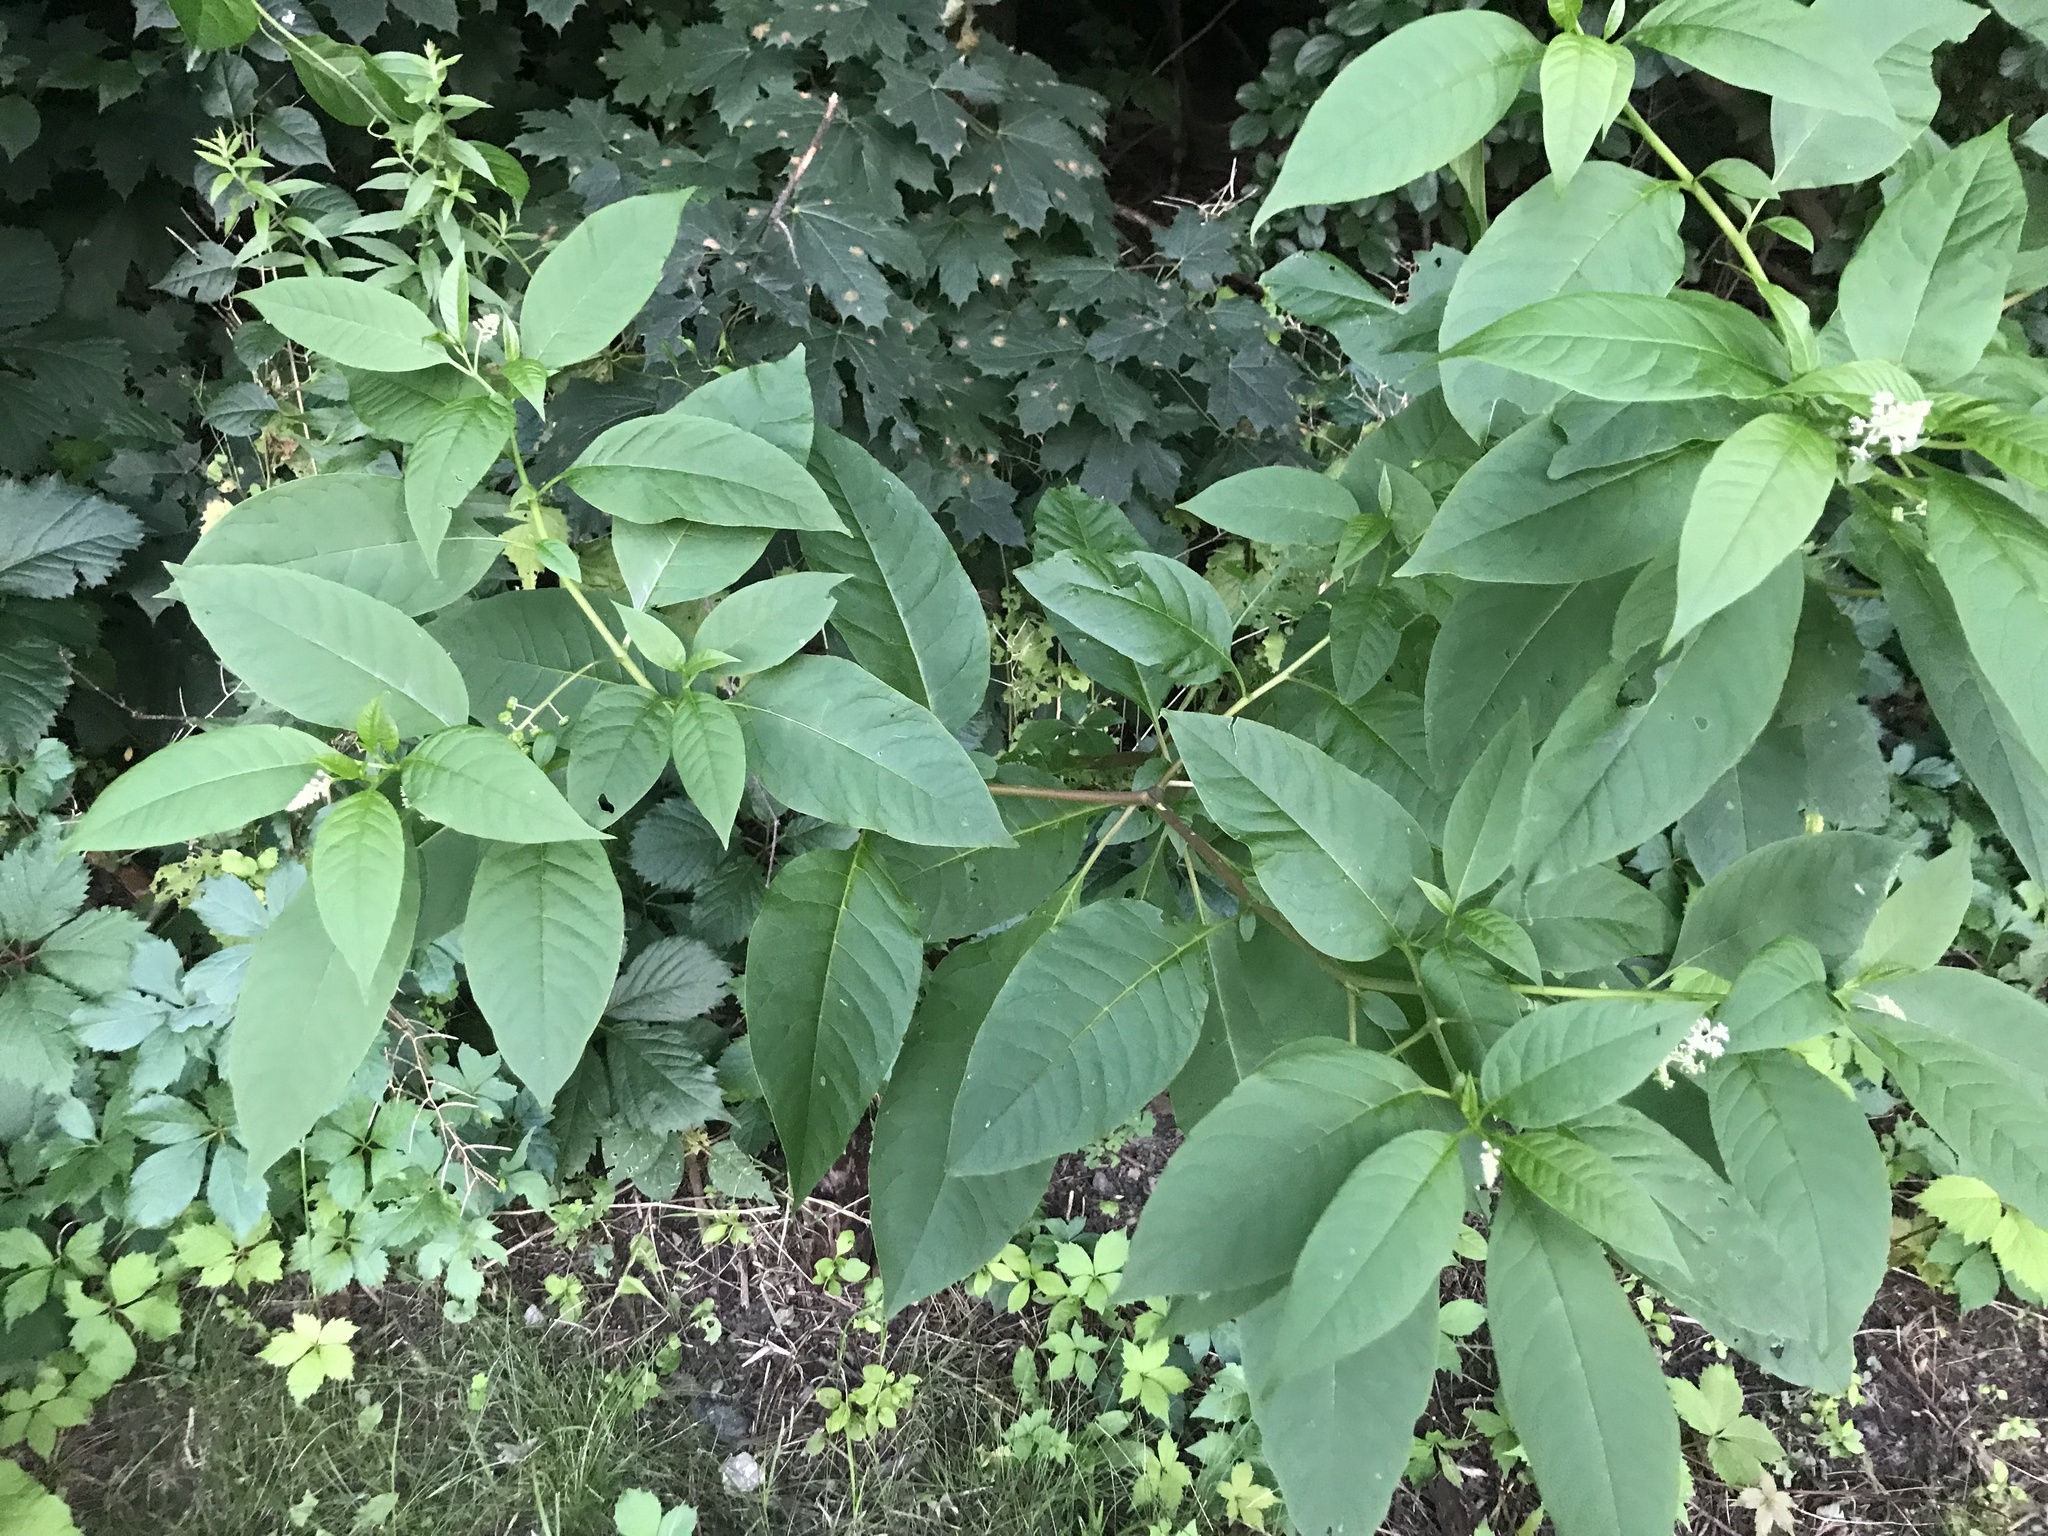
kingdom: Plantae
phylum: Tracheophyta
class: Magnoliopsida
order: Caryophyllales
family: Phytolaccaceae
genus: Phytolacca
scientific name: Phytolacca americana
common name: American pokeweed
